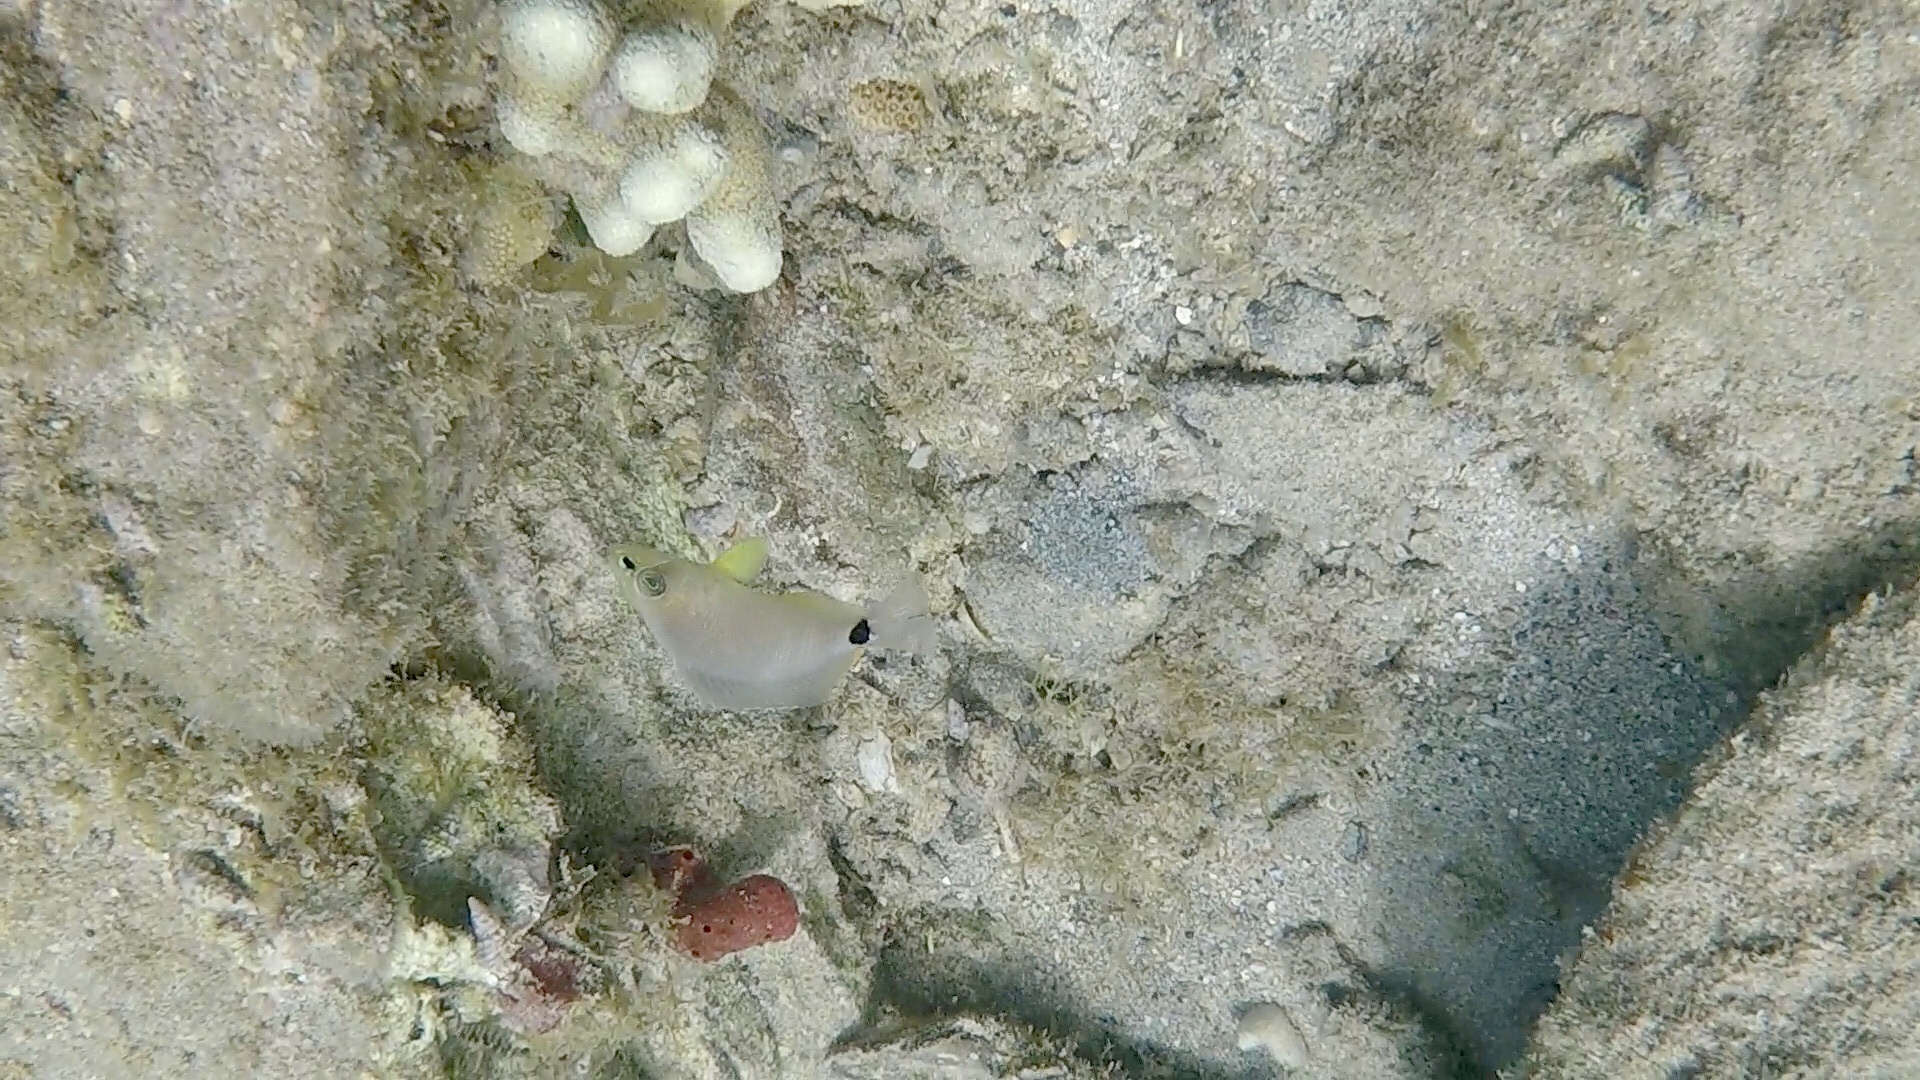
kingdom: Animalia
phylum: Chordata
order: Perciformes
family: Serranidae
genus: Hypoplectrus
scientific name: Hypoplectrus unicolor
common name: Butter hamlet
